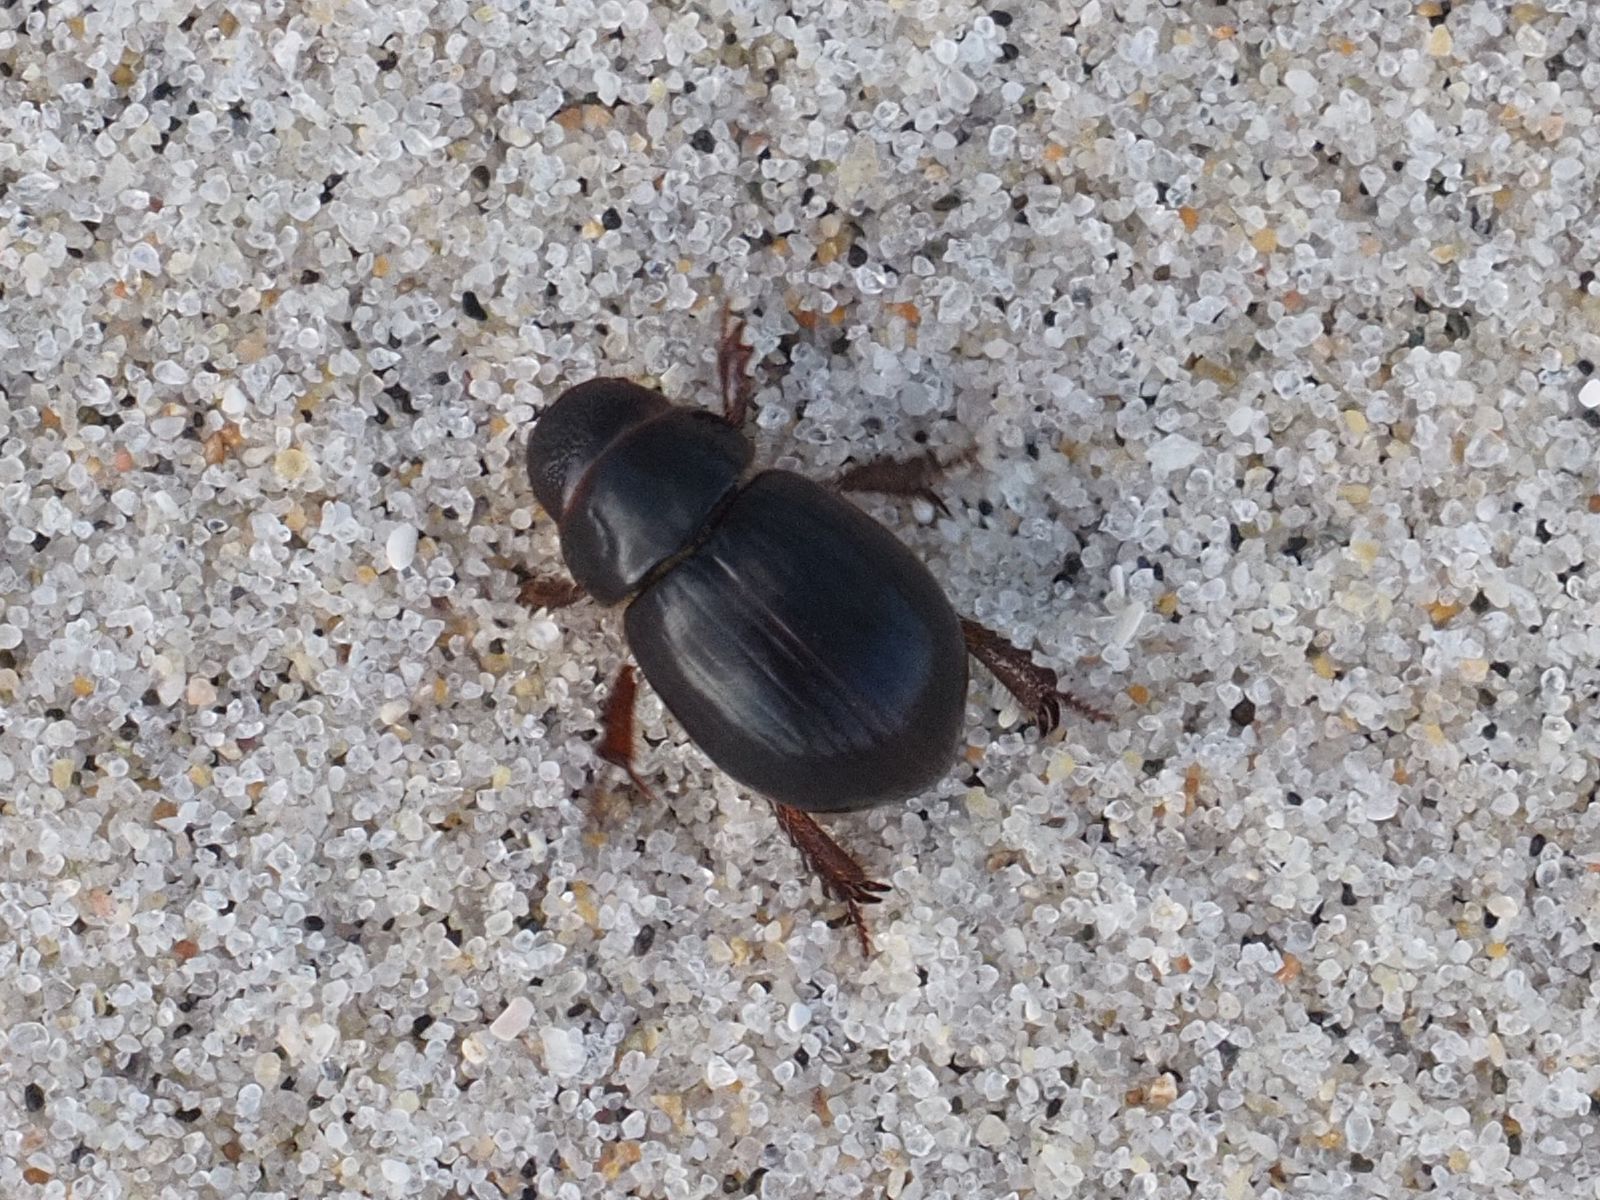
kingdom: Animalia
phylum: Arthropoda
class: Insecta
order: Coleoptera
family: Scarabaeidae
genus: Aegialia
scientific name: Aegialia arenaria
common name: Dune sand scarab beetle
